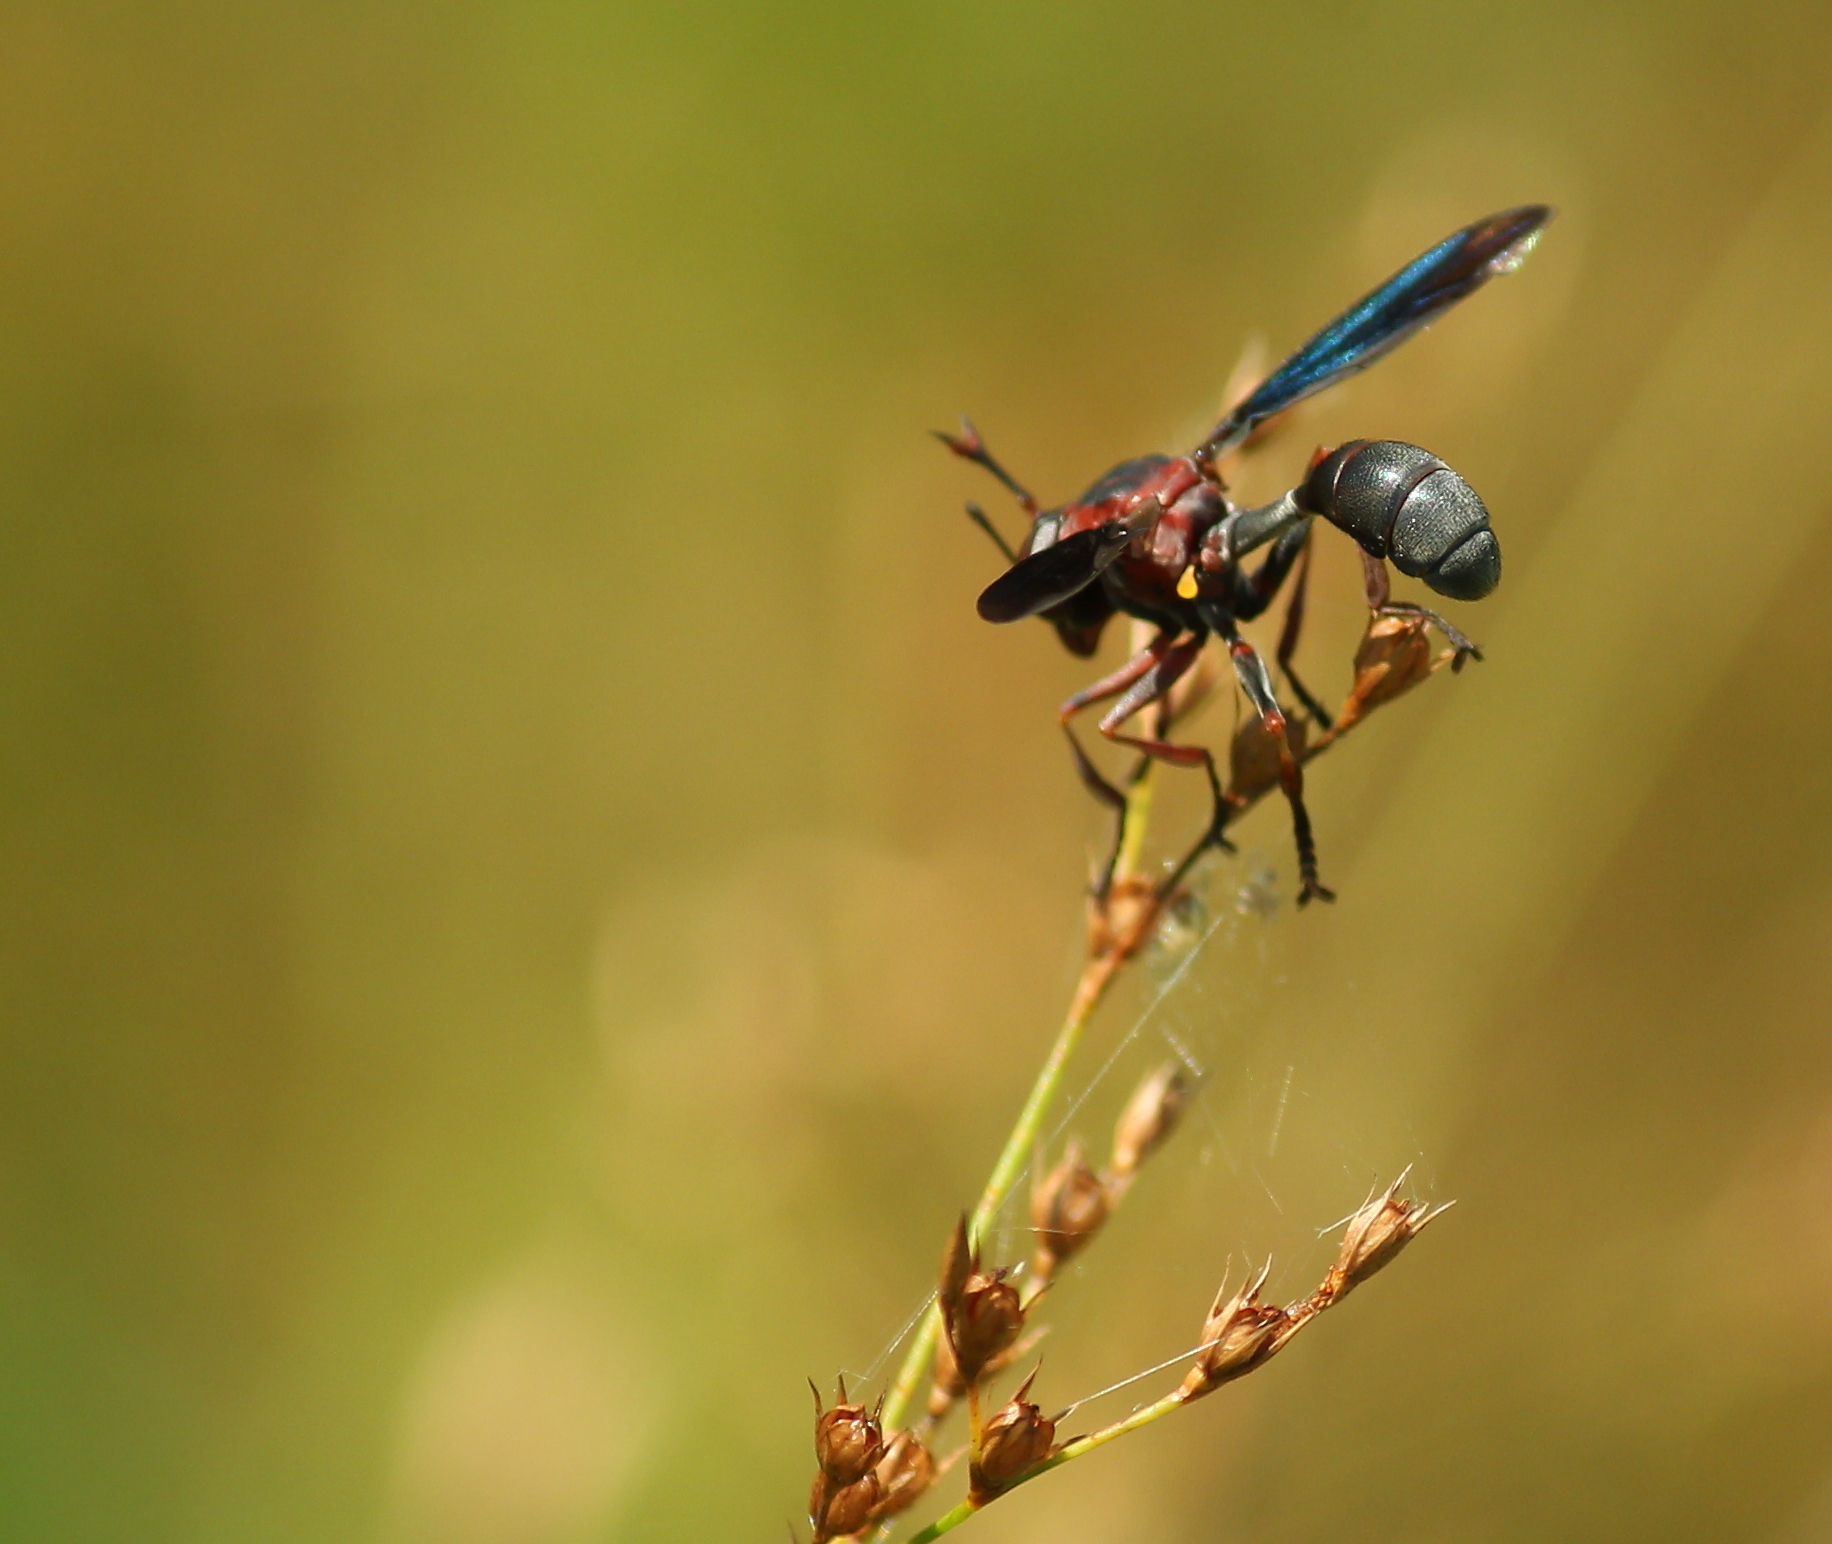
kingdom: Animalia
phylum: Arthropoda
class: Insecta
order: Diptera
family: Conopidae
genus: Physocephala
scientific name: Physocephala floridana
